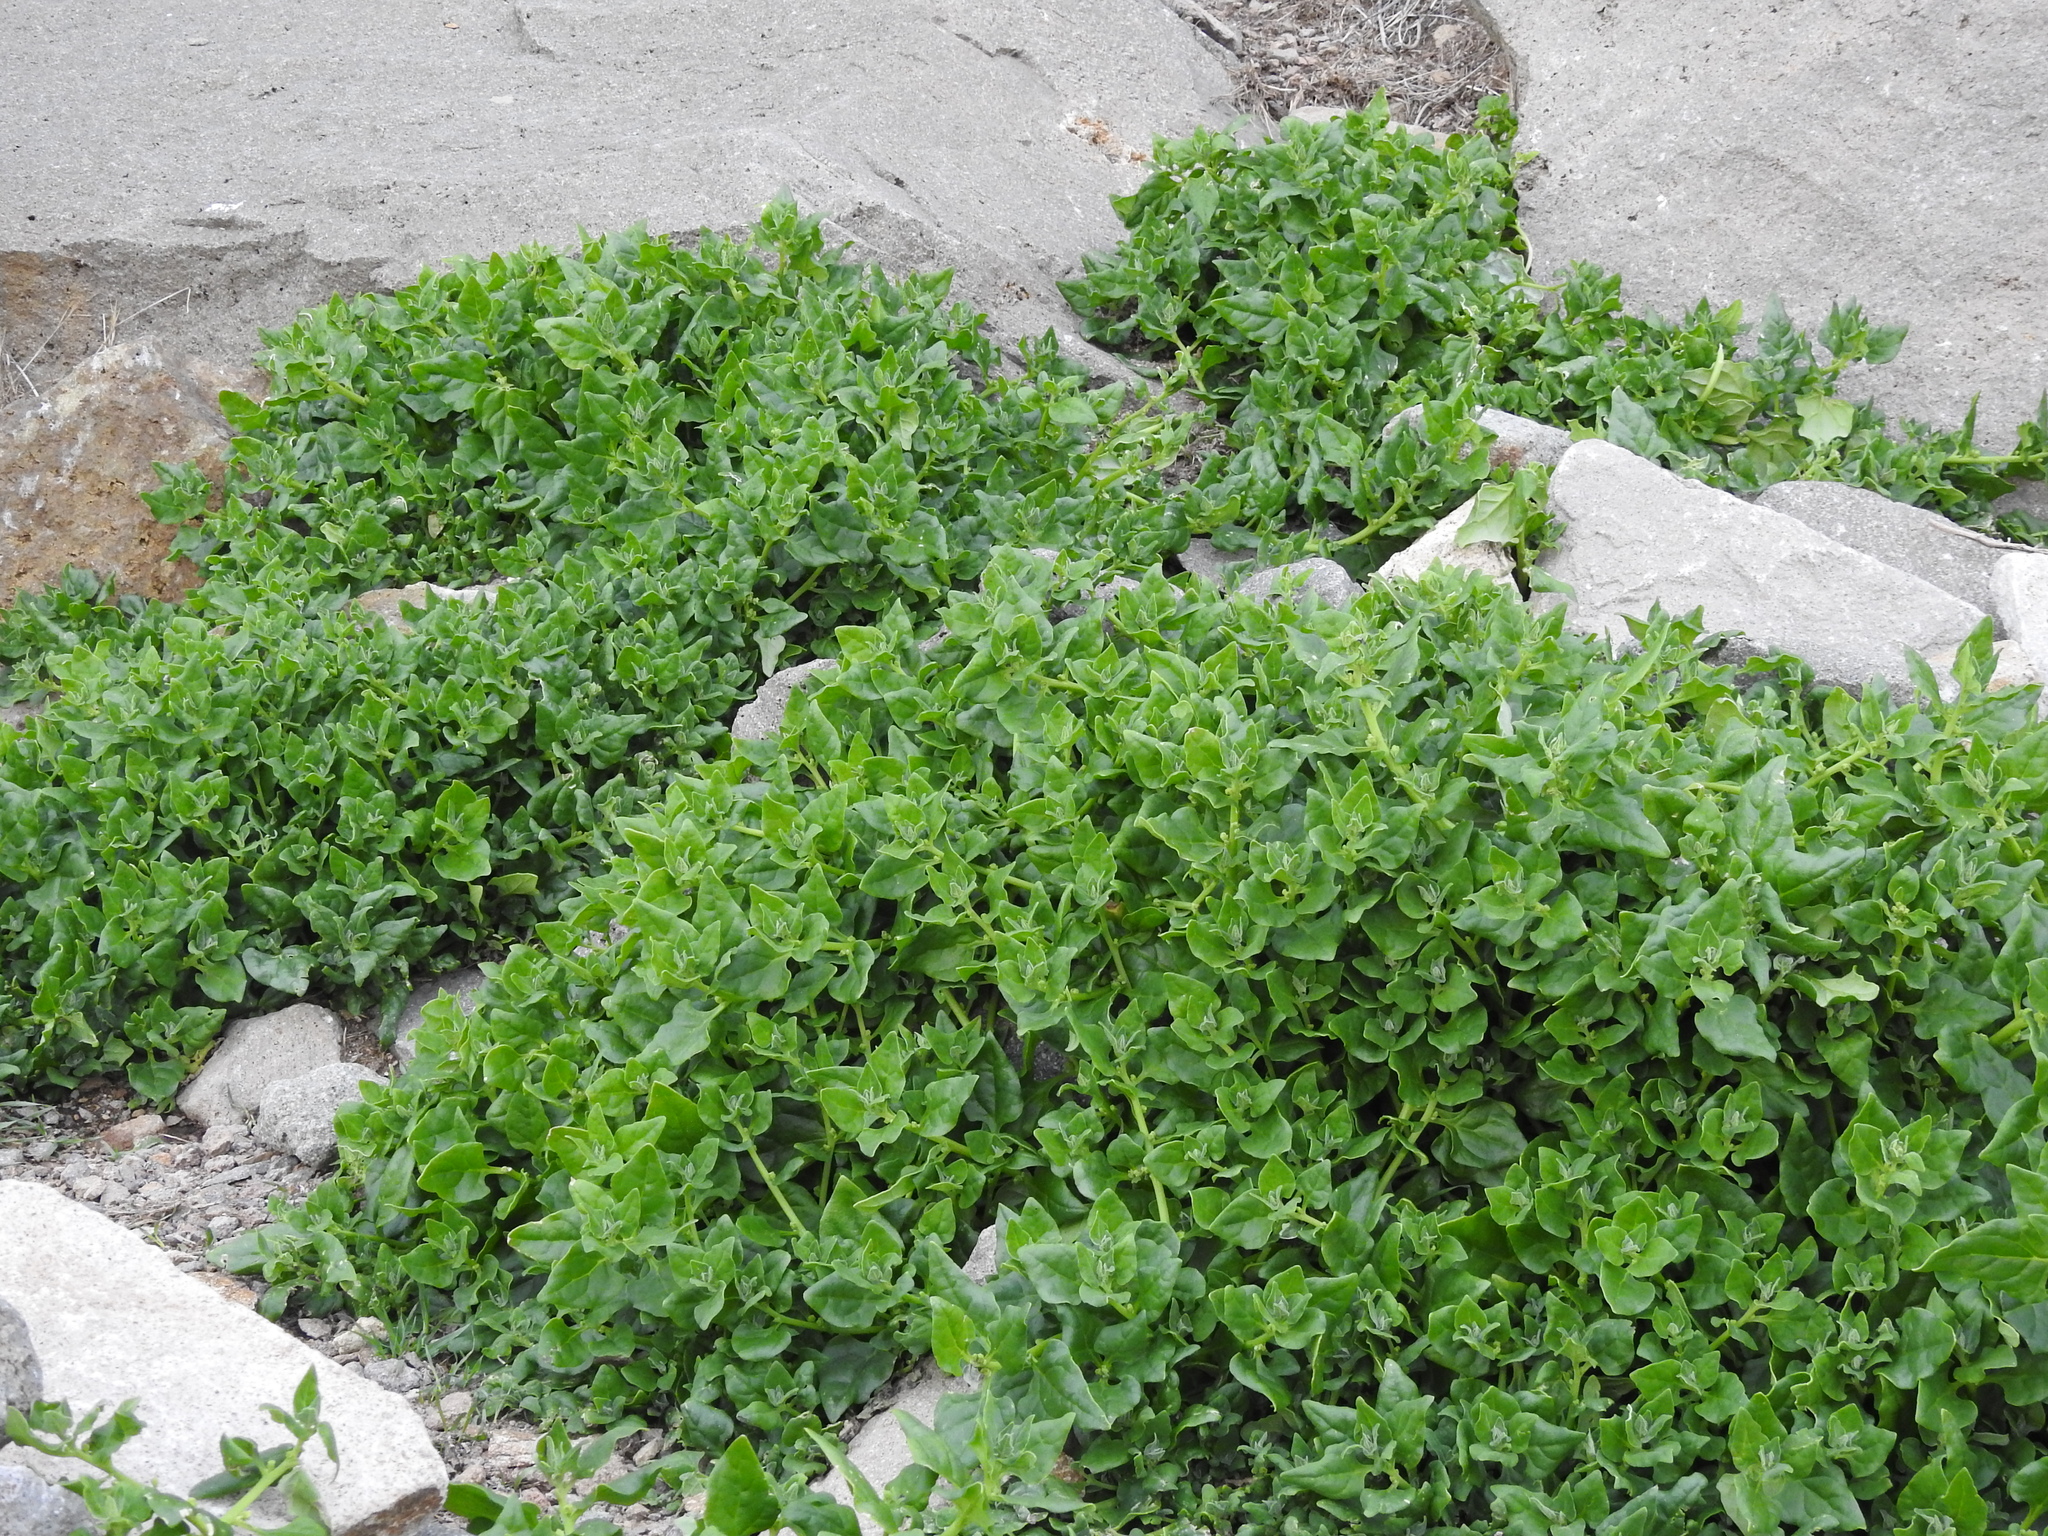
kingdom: Plantae
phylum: Tracheophyta
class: Magnoliopsida
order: Caryophyllales
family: Aizoaceae
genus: Tetragonia
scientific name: Tetragonia tetragonoides
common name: New zealand-spinach
